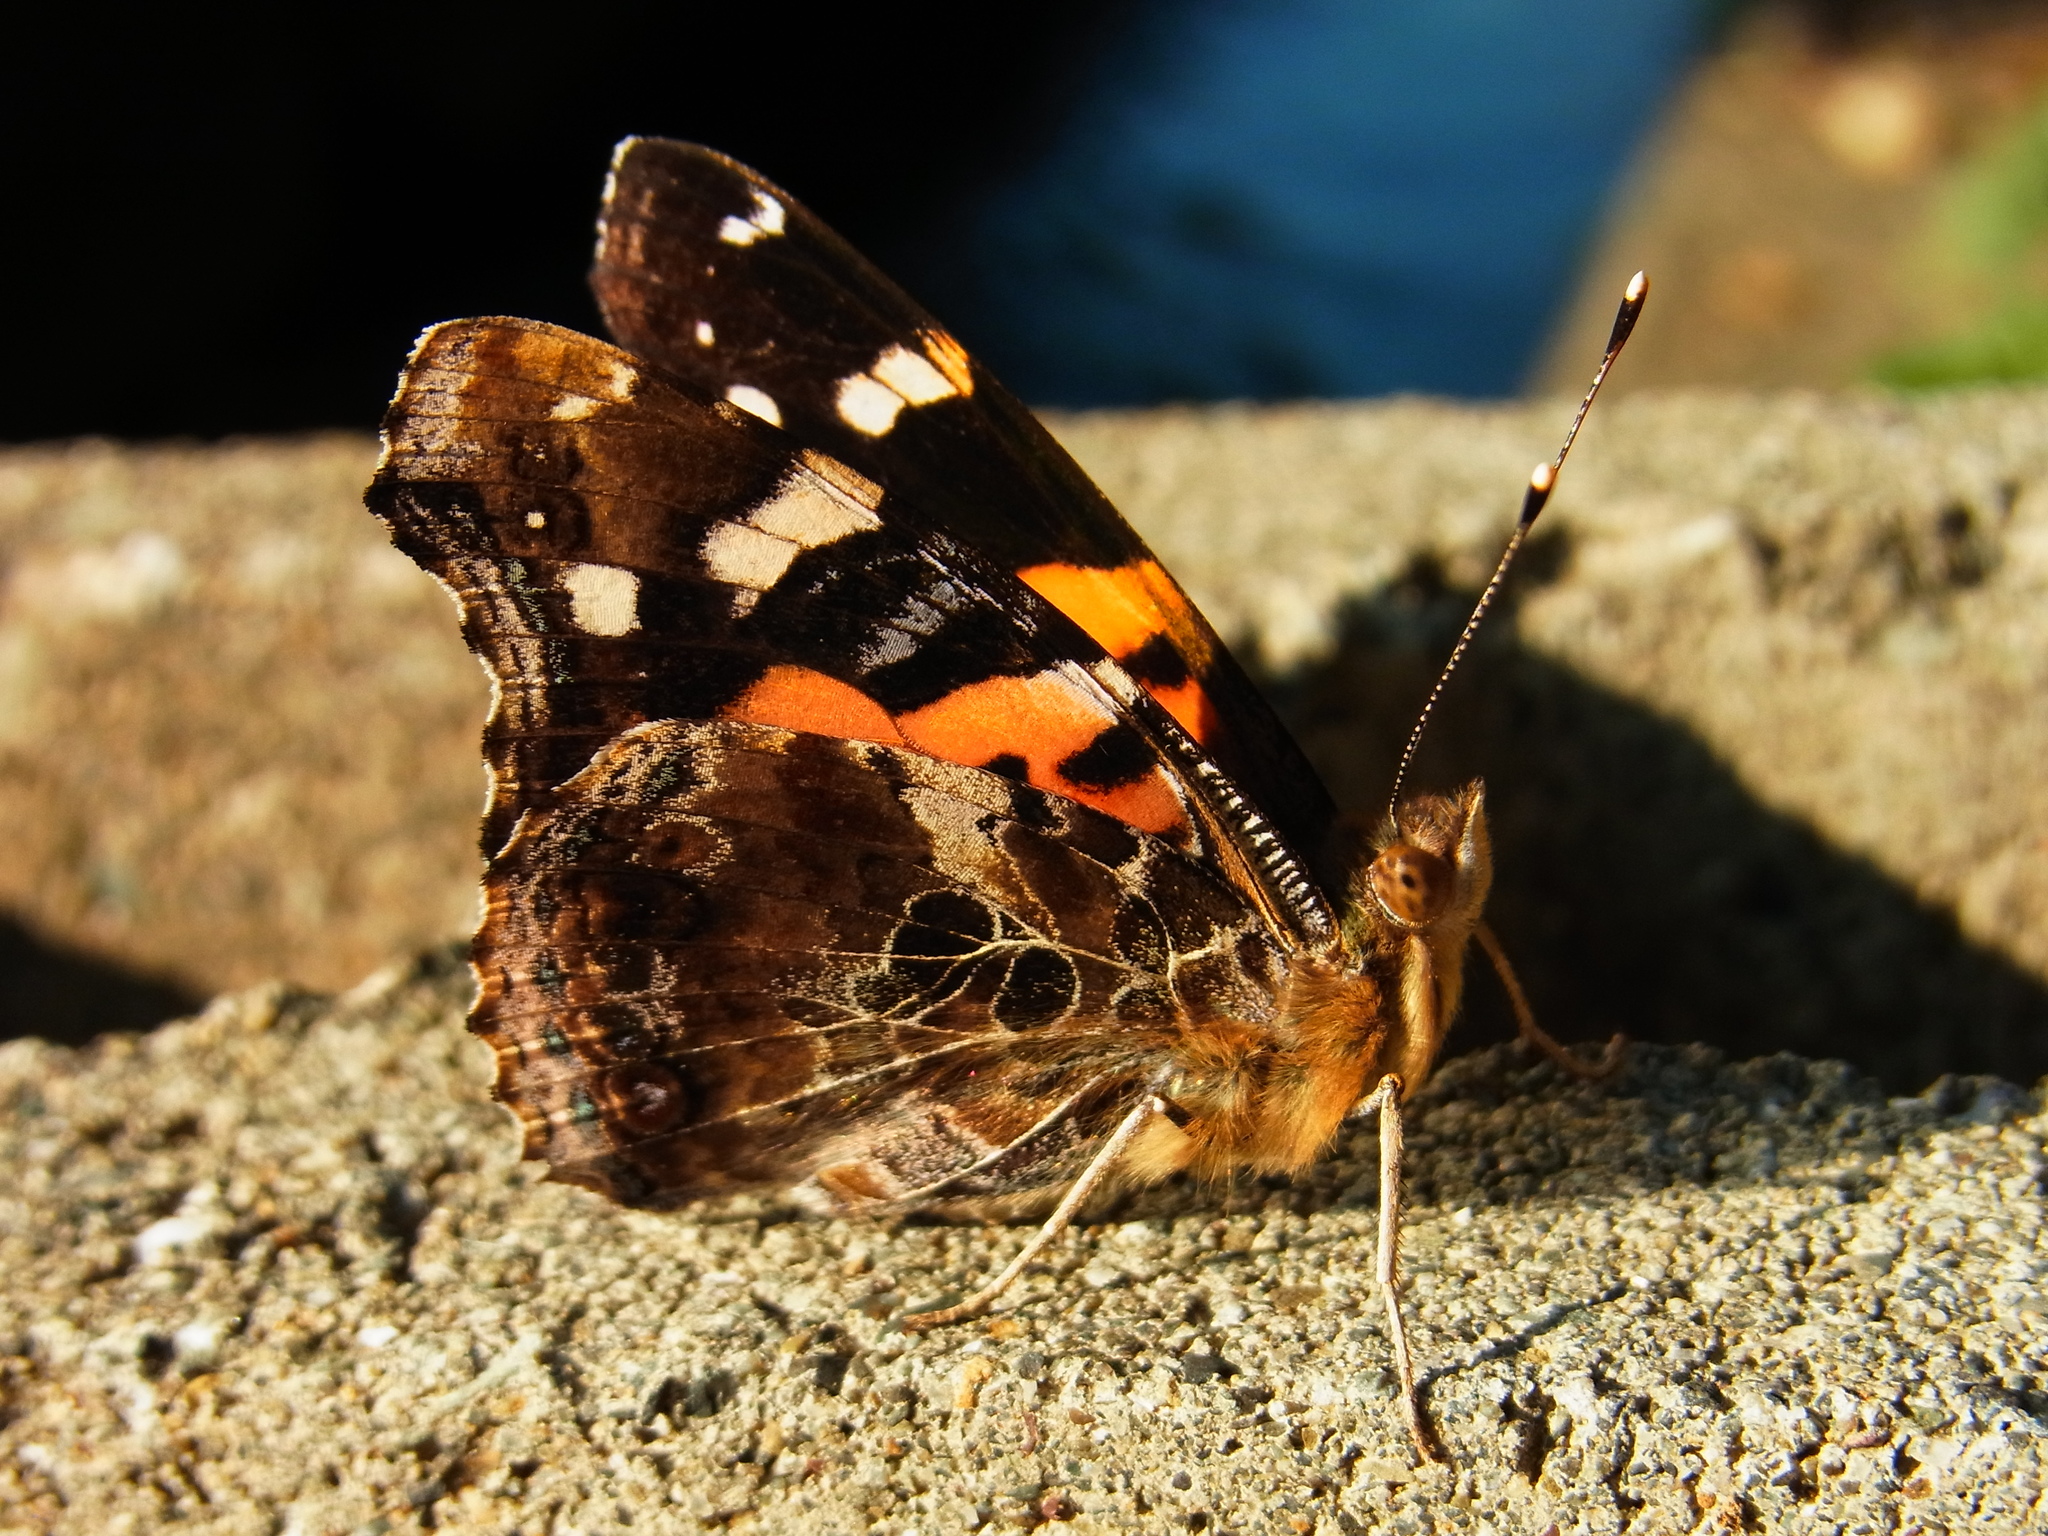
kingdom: Animalia
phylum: Arthropoda
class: Insecta
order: Lepidoptera
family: Nymphalidae
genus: Vanessa
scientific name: Vanessa indica
